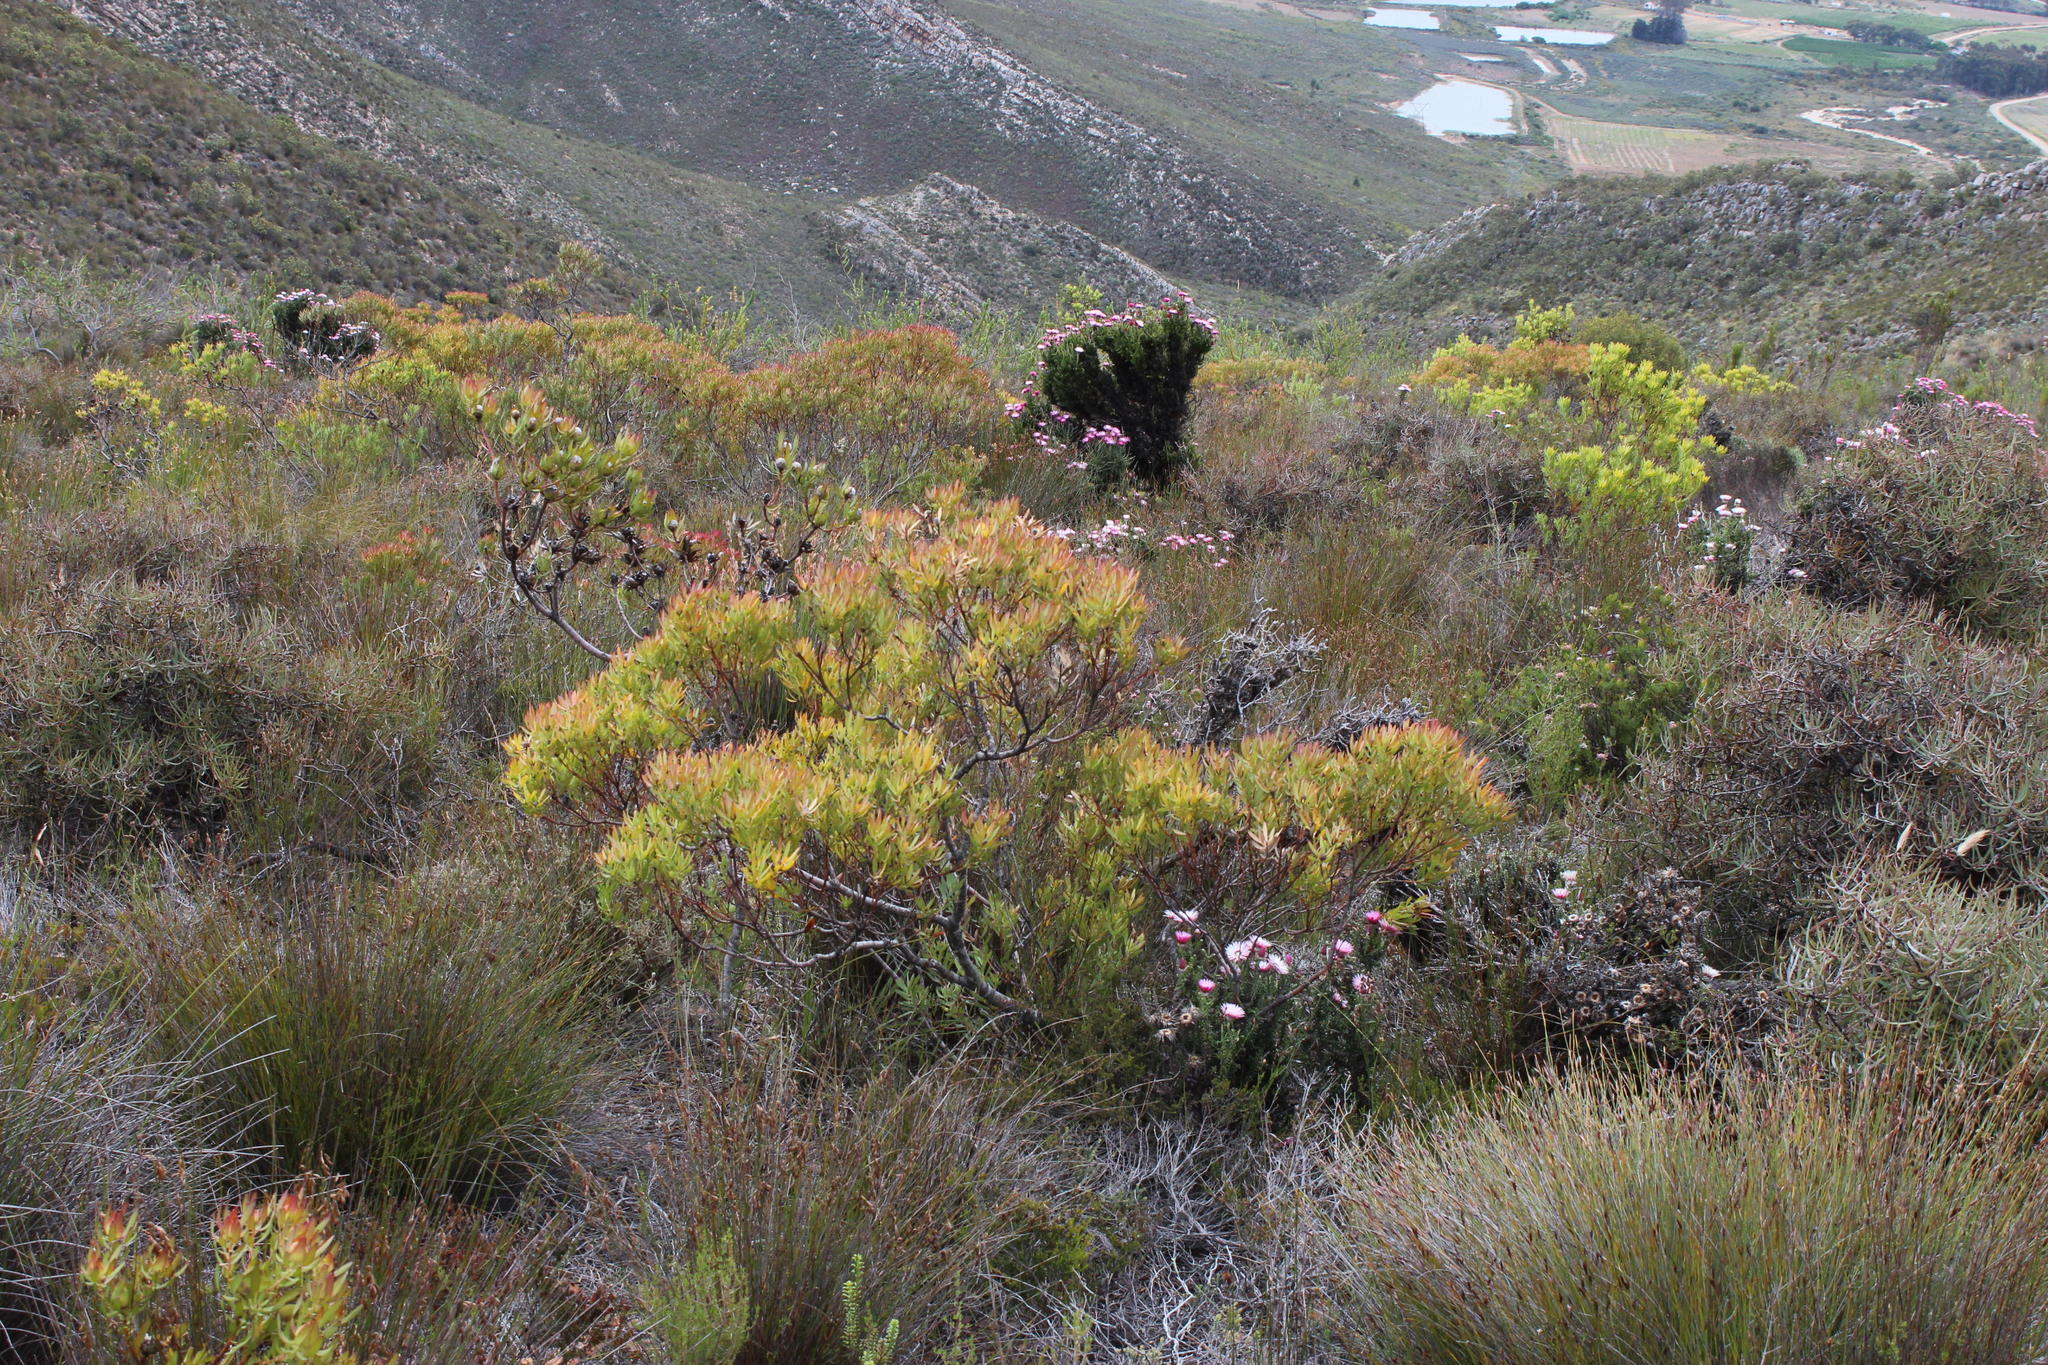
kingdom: Plantae
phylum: Tracheophyta
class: Magnoliopsida
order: Proteales
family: Proteaceae
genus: Leucadendron
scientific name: Leucadendron salignum
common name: Common sunshine conebush
